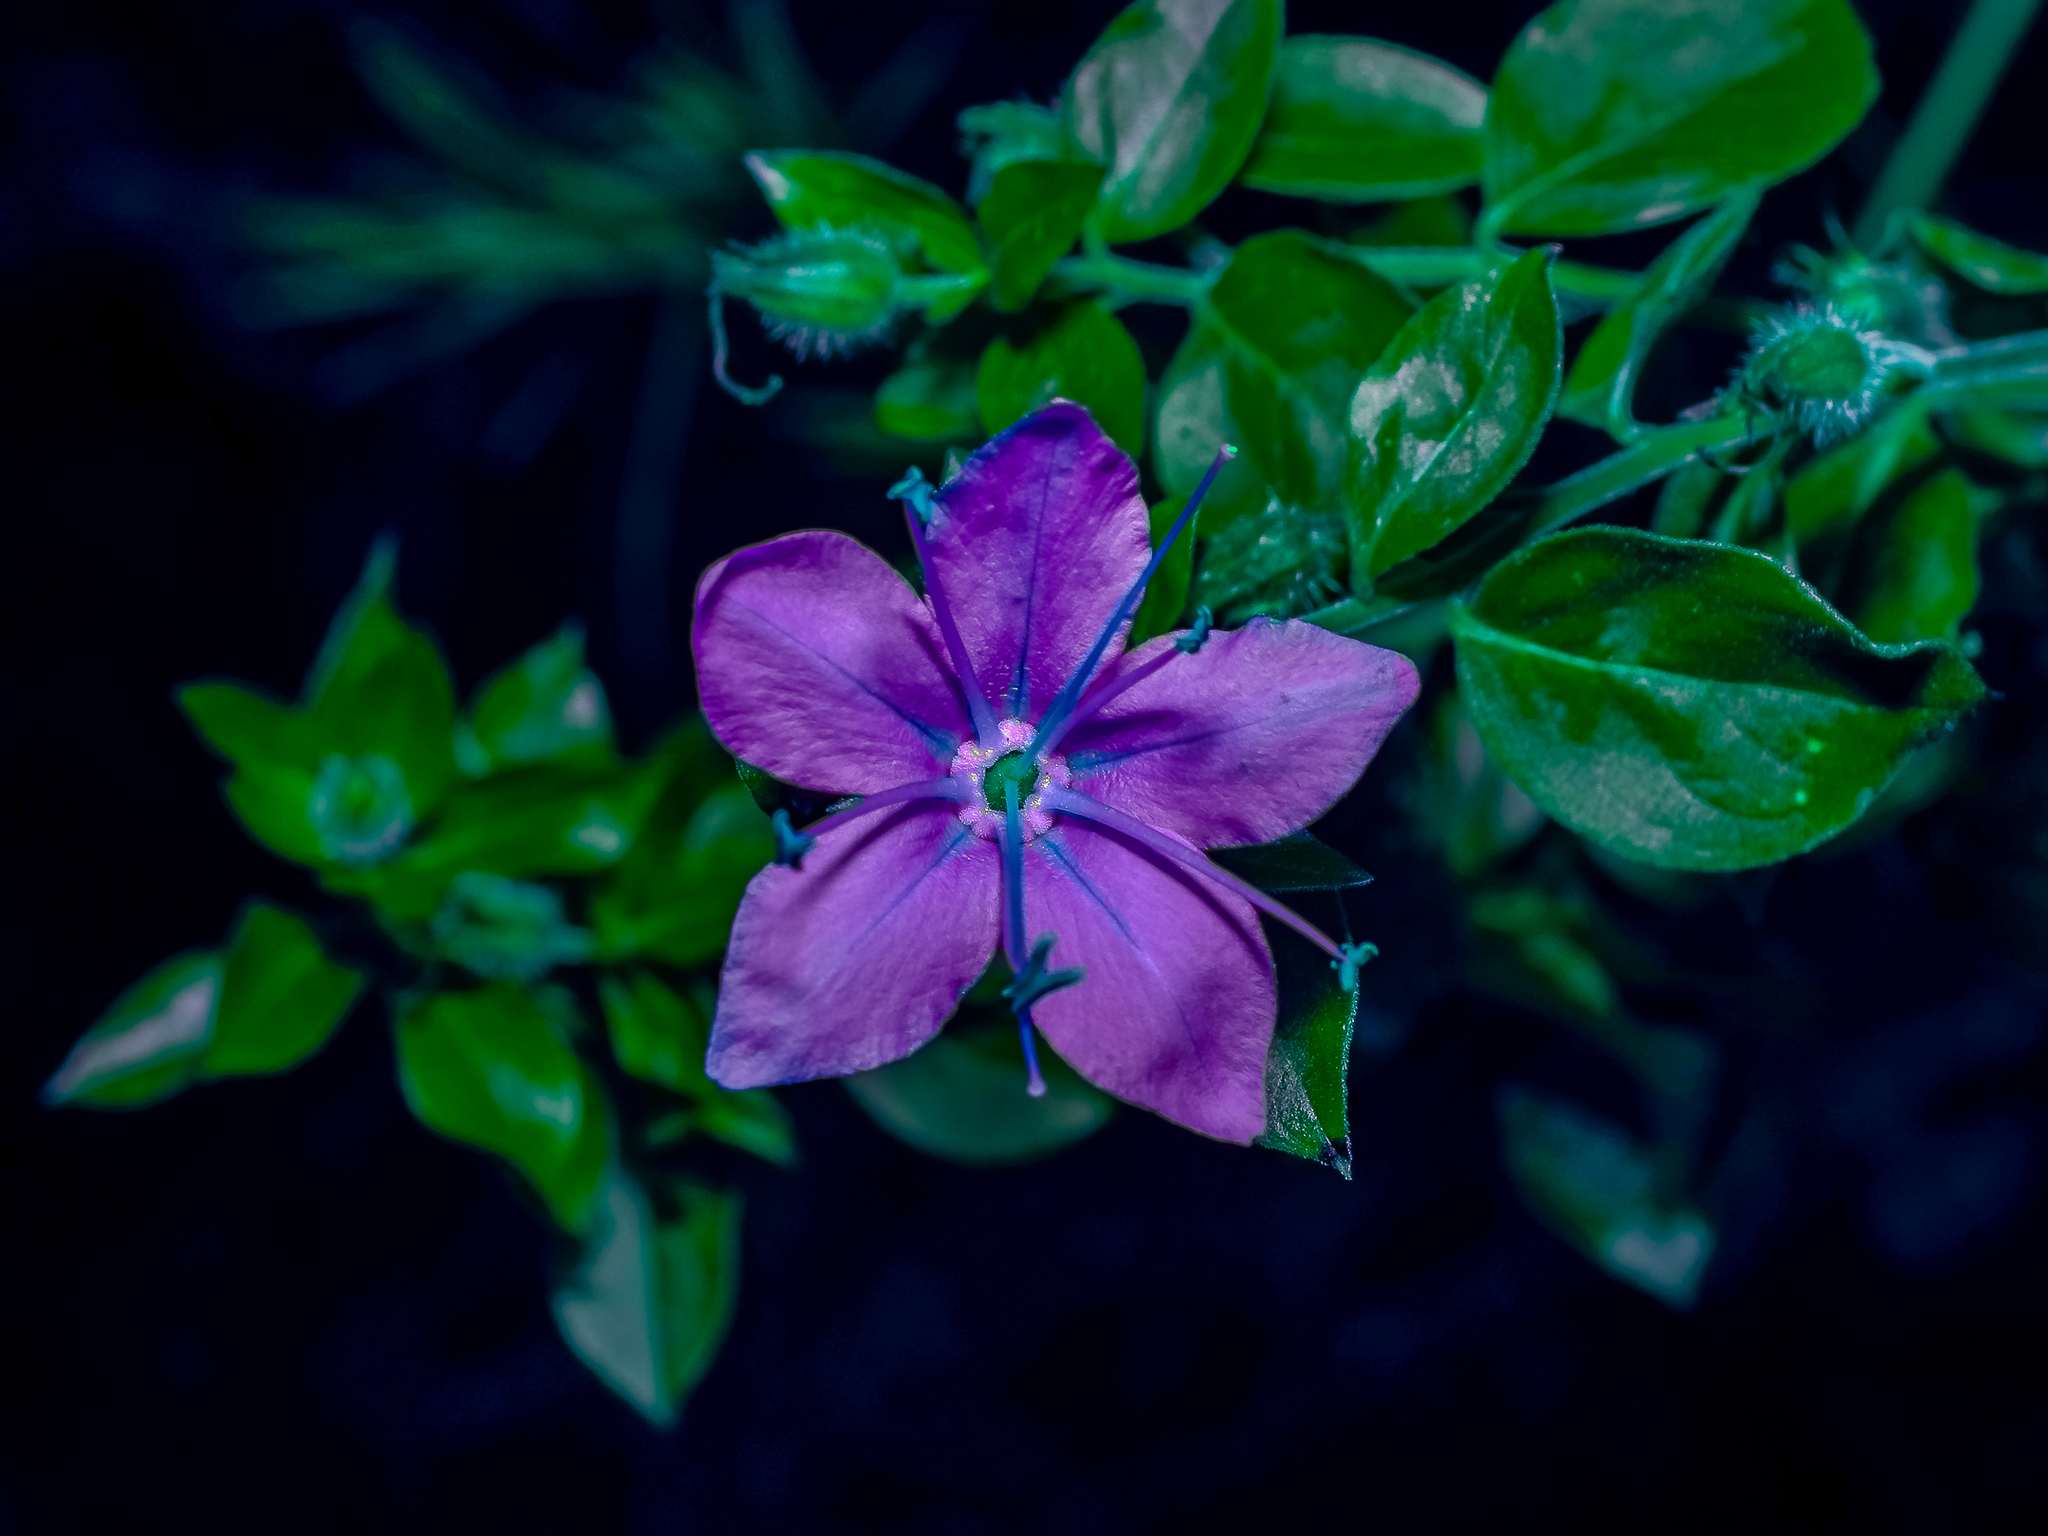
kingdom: Plantae
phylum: Tracheophyta
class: Magnoliopsida
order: Solanales
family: Hydroleaceae
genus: Hydrolea
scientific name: Hydrolea ovata
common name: Ovate false fiddleleaf
